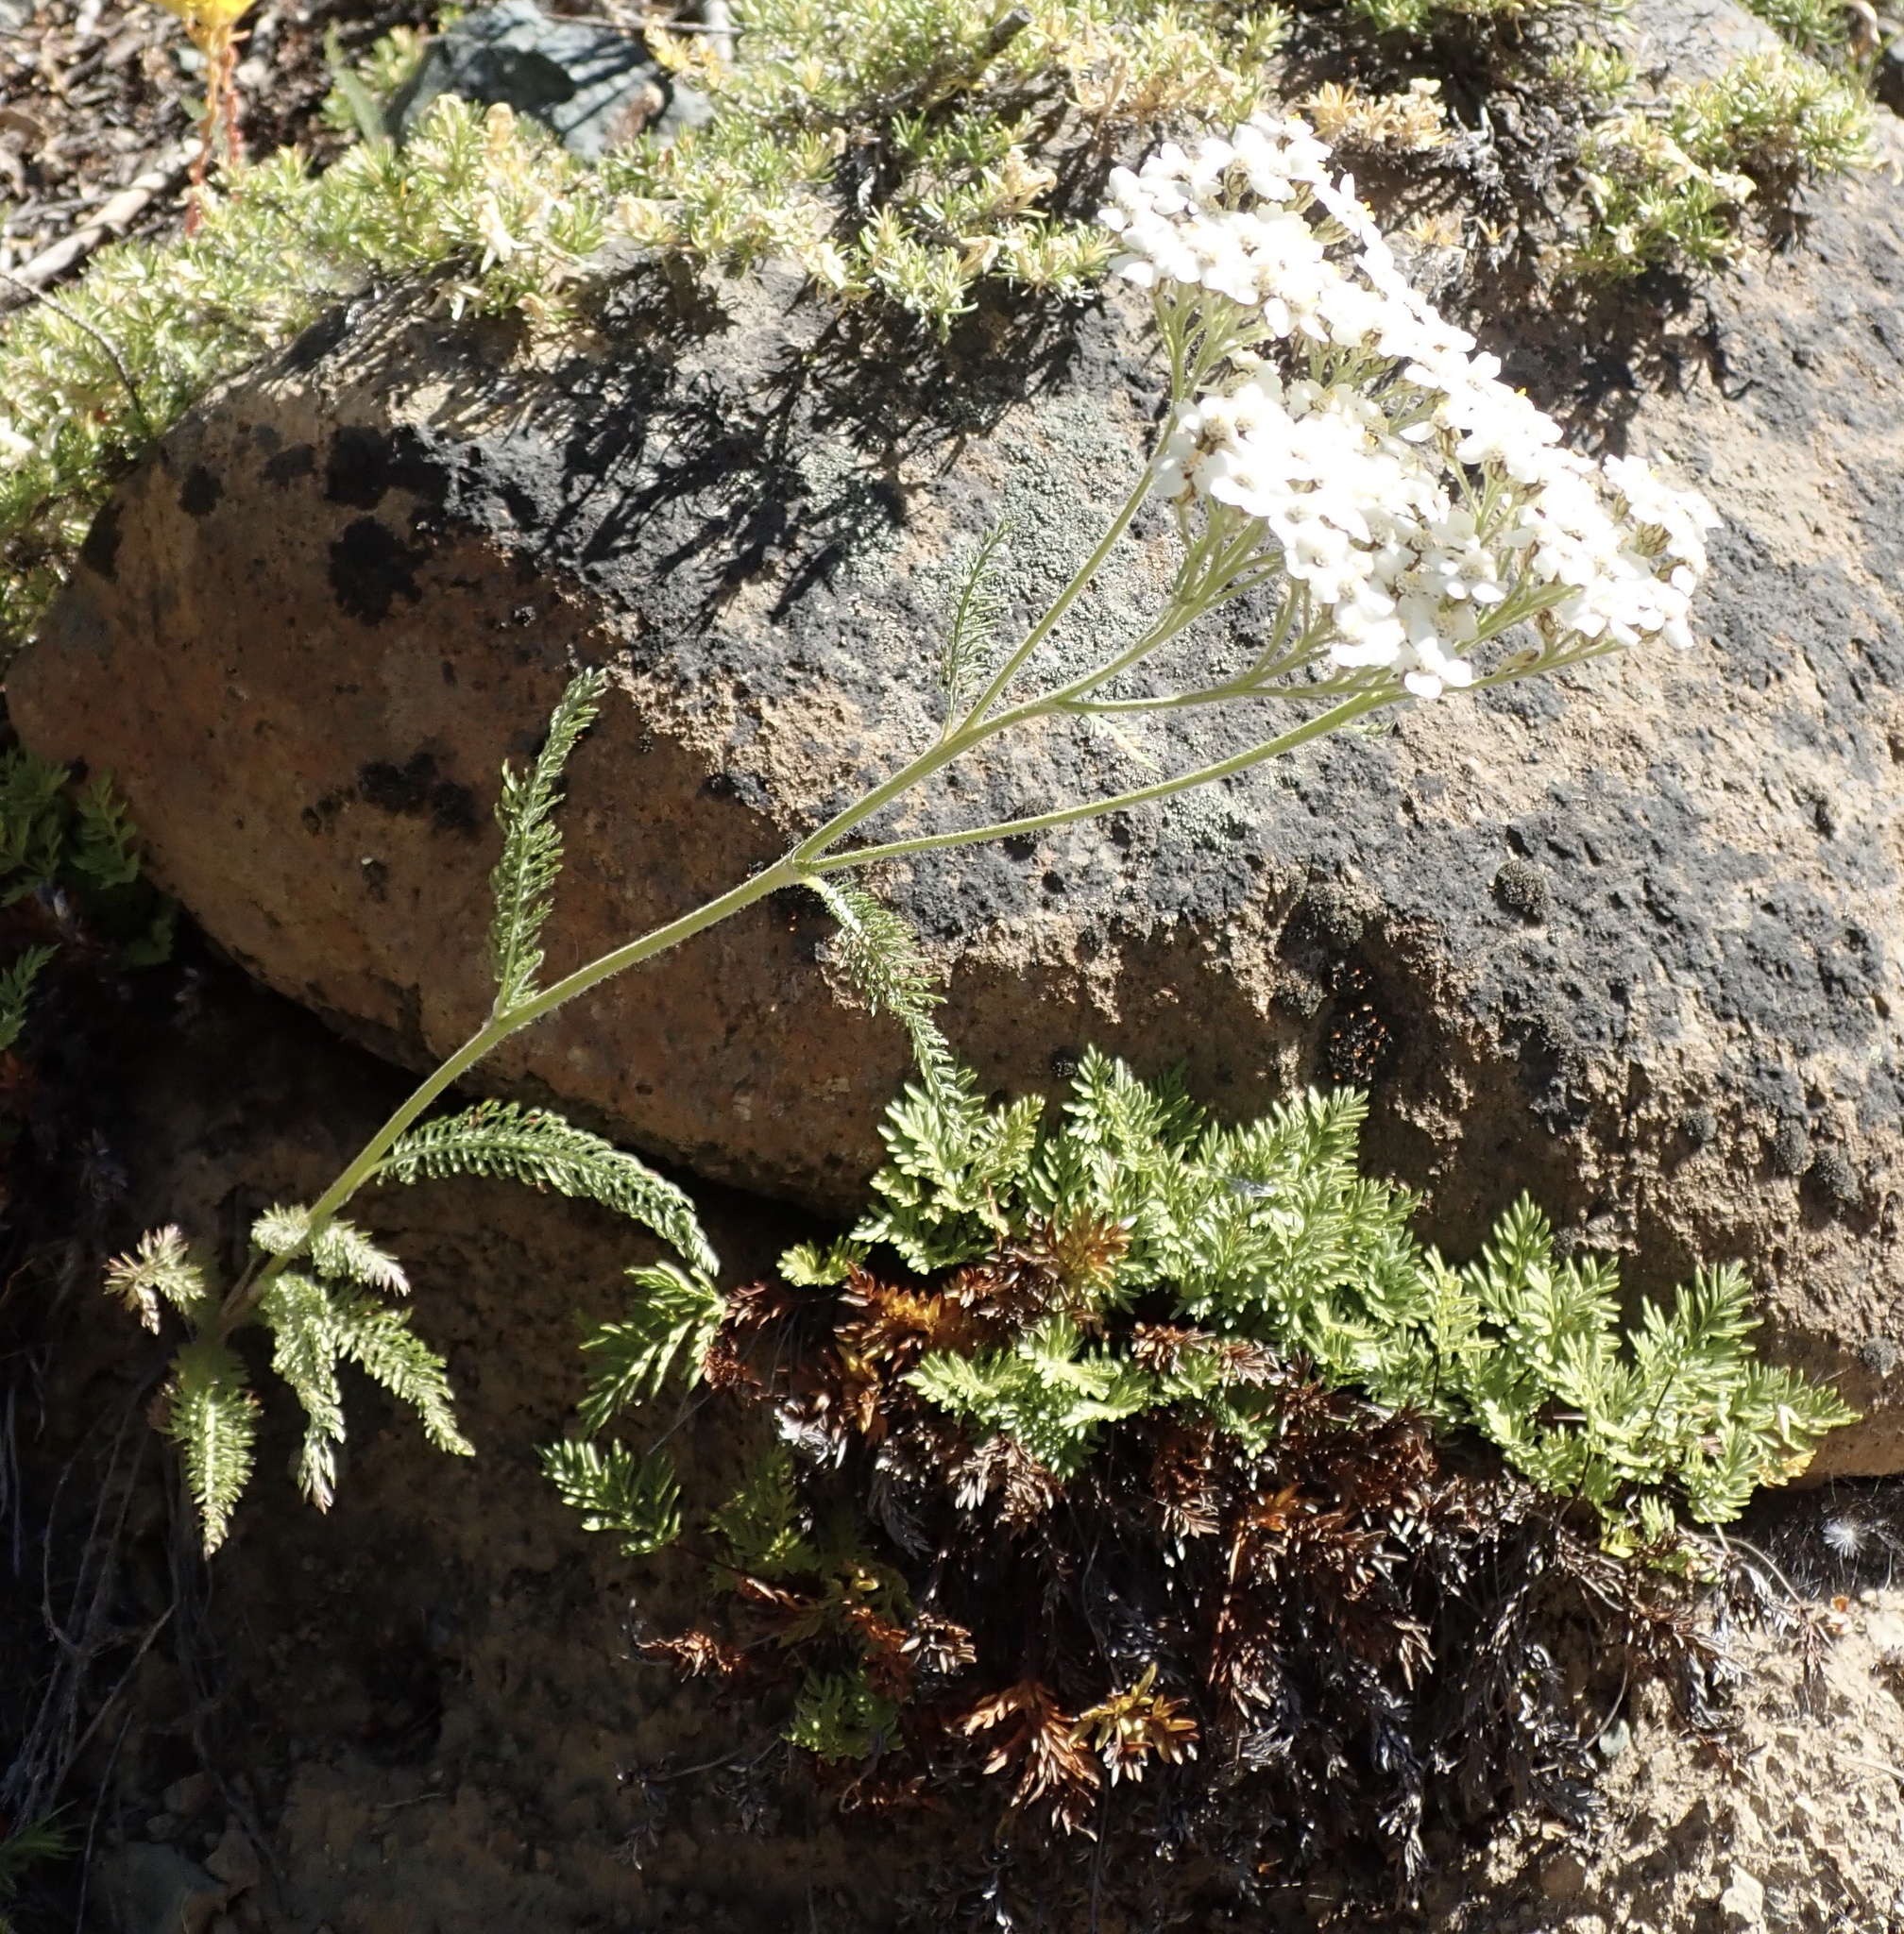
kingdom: Plantae
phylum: Tracheophyta
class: Magnoliopsida
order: Asterales
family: Asteraceae
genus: Achillea
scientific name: Achillea millefolium
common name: Yarrow
